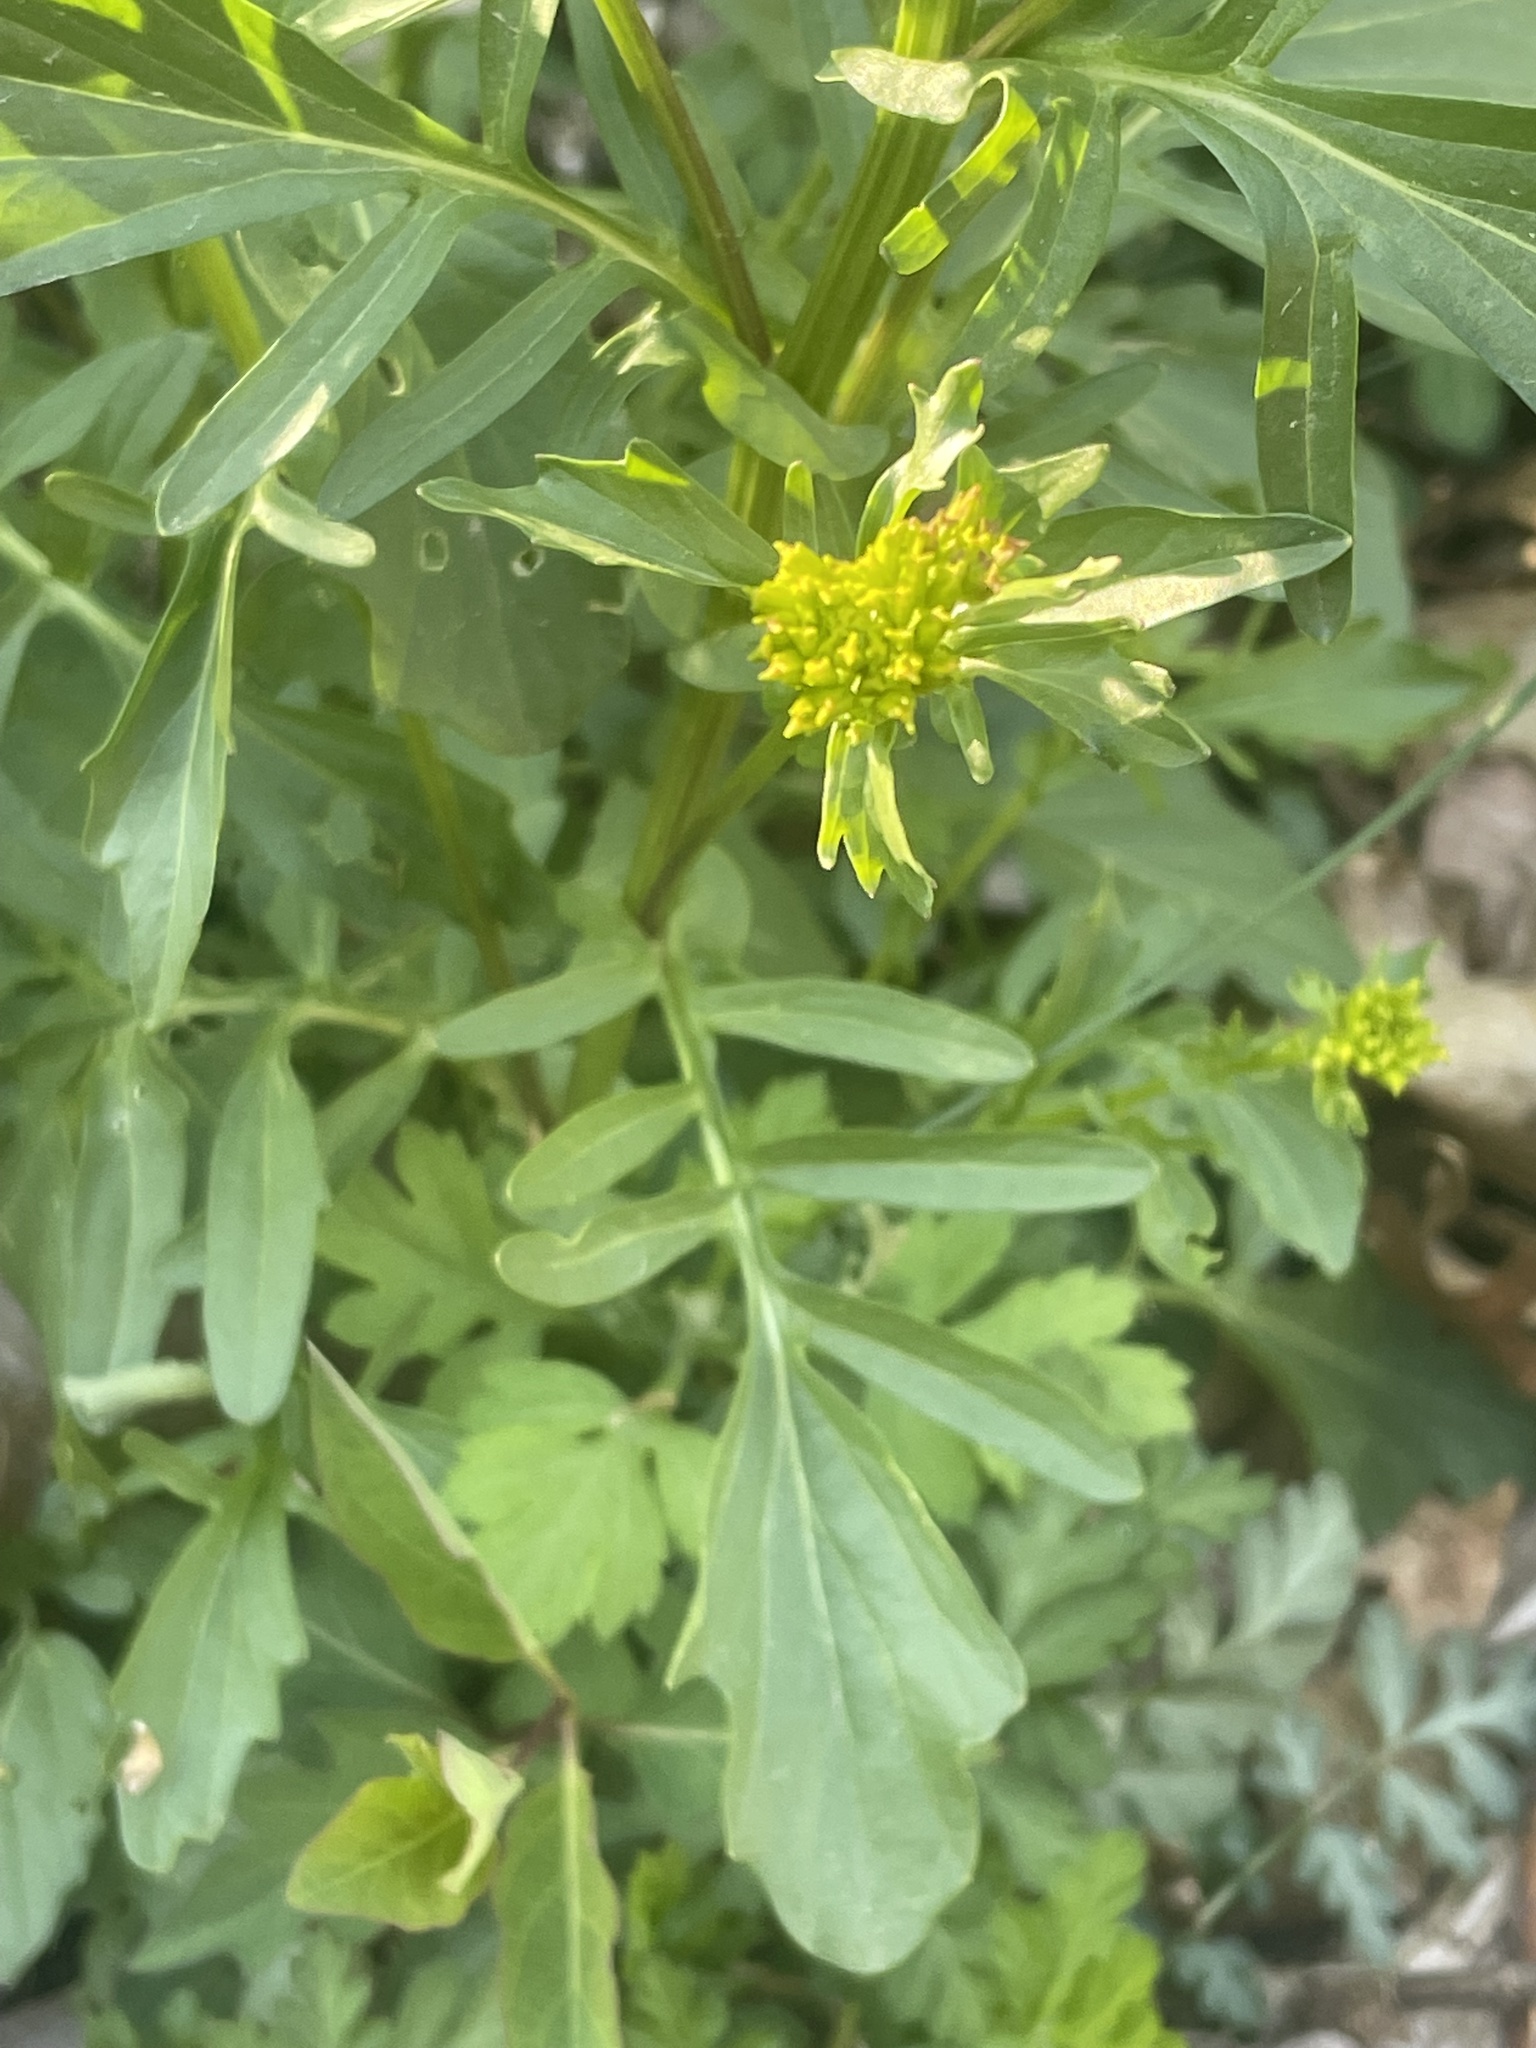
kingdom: Plantae
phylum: Tracheophyta
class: Magnoliopsida
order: Brassicales
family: Brassicaceae
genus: Barbarea
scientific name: Barbarea vulgaris
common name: Cressy-greens
